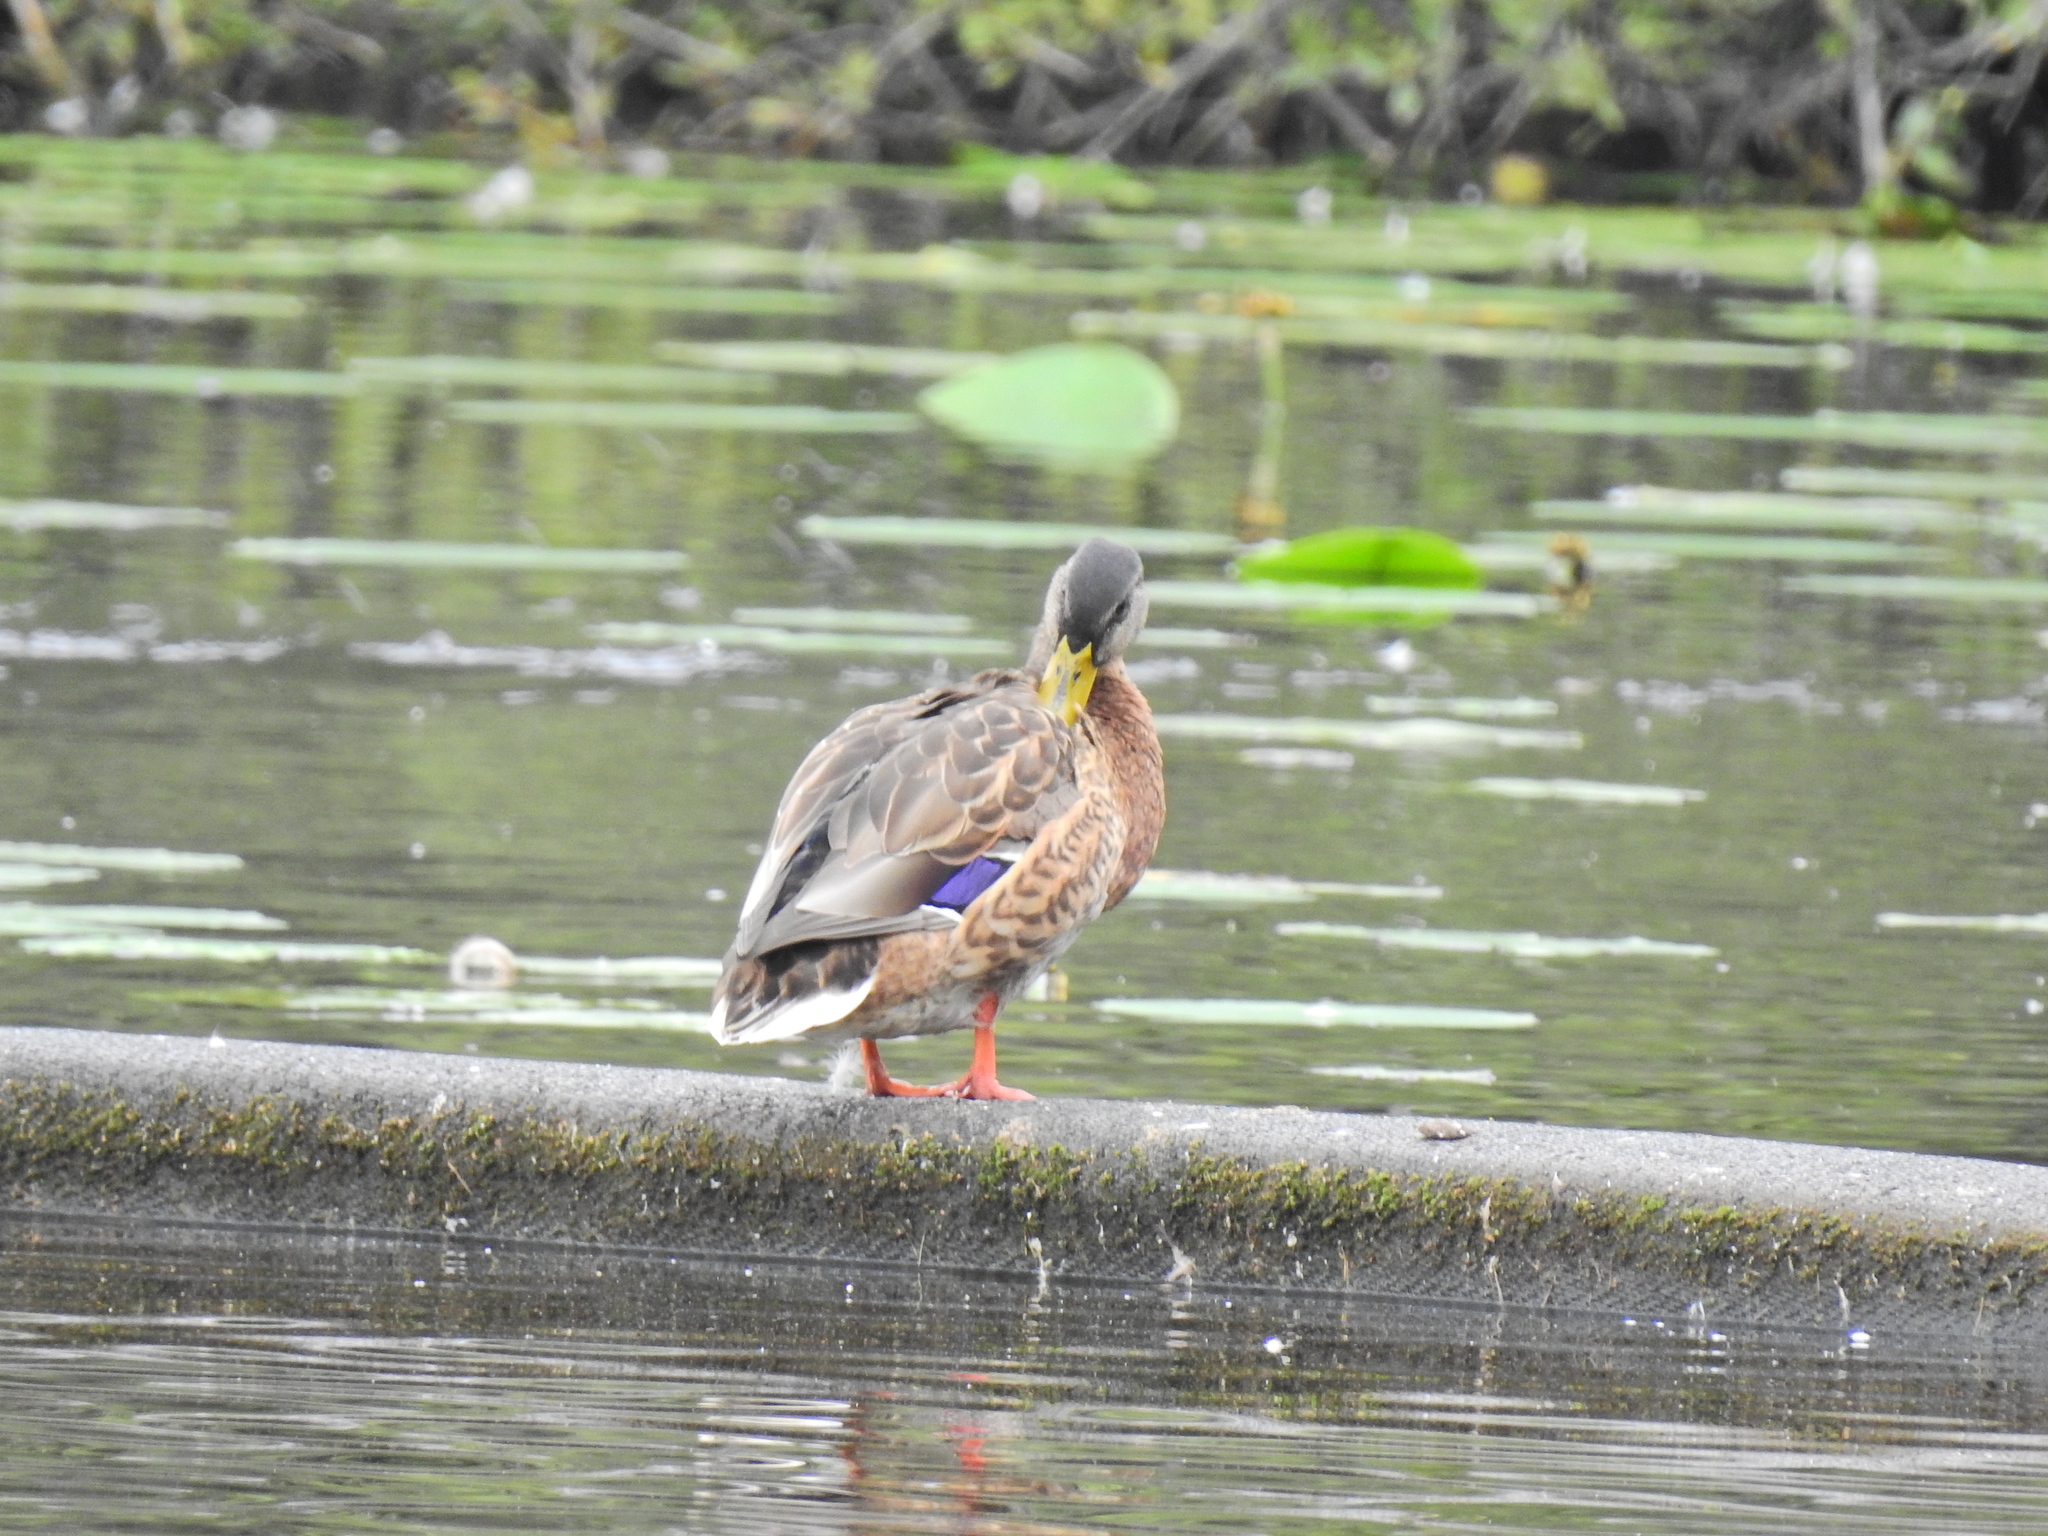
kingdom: Animalia
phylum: Chordata
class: Aves
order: Anseriformes
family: Anatidae
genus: Anas
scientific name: Anas platyrhynchos
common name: Mallard
